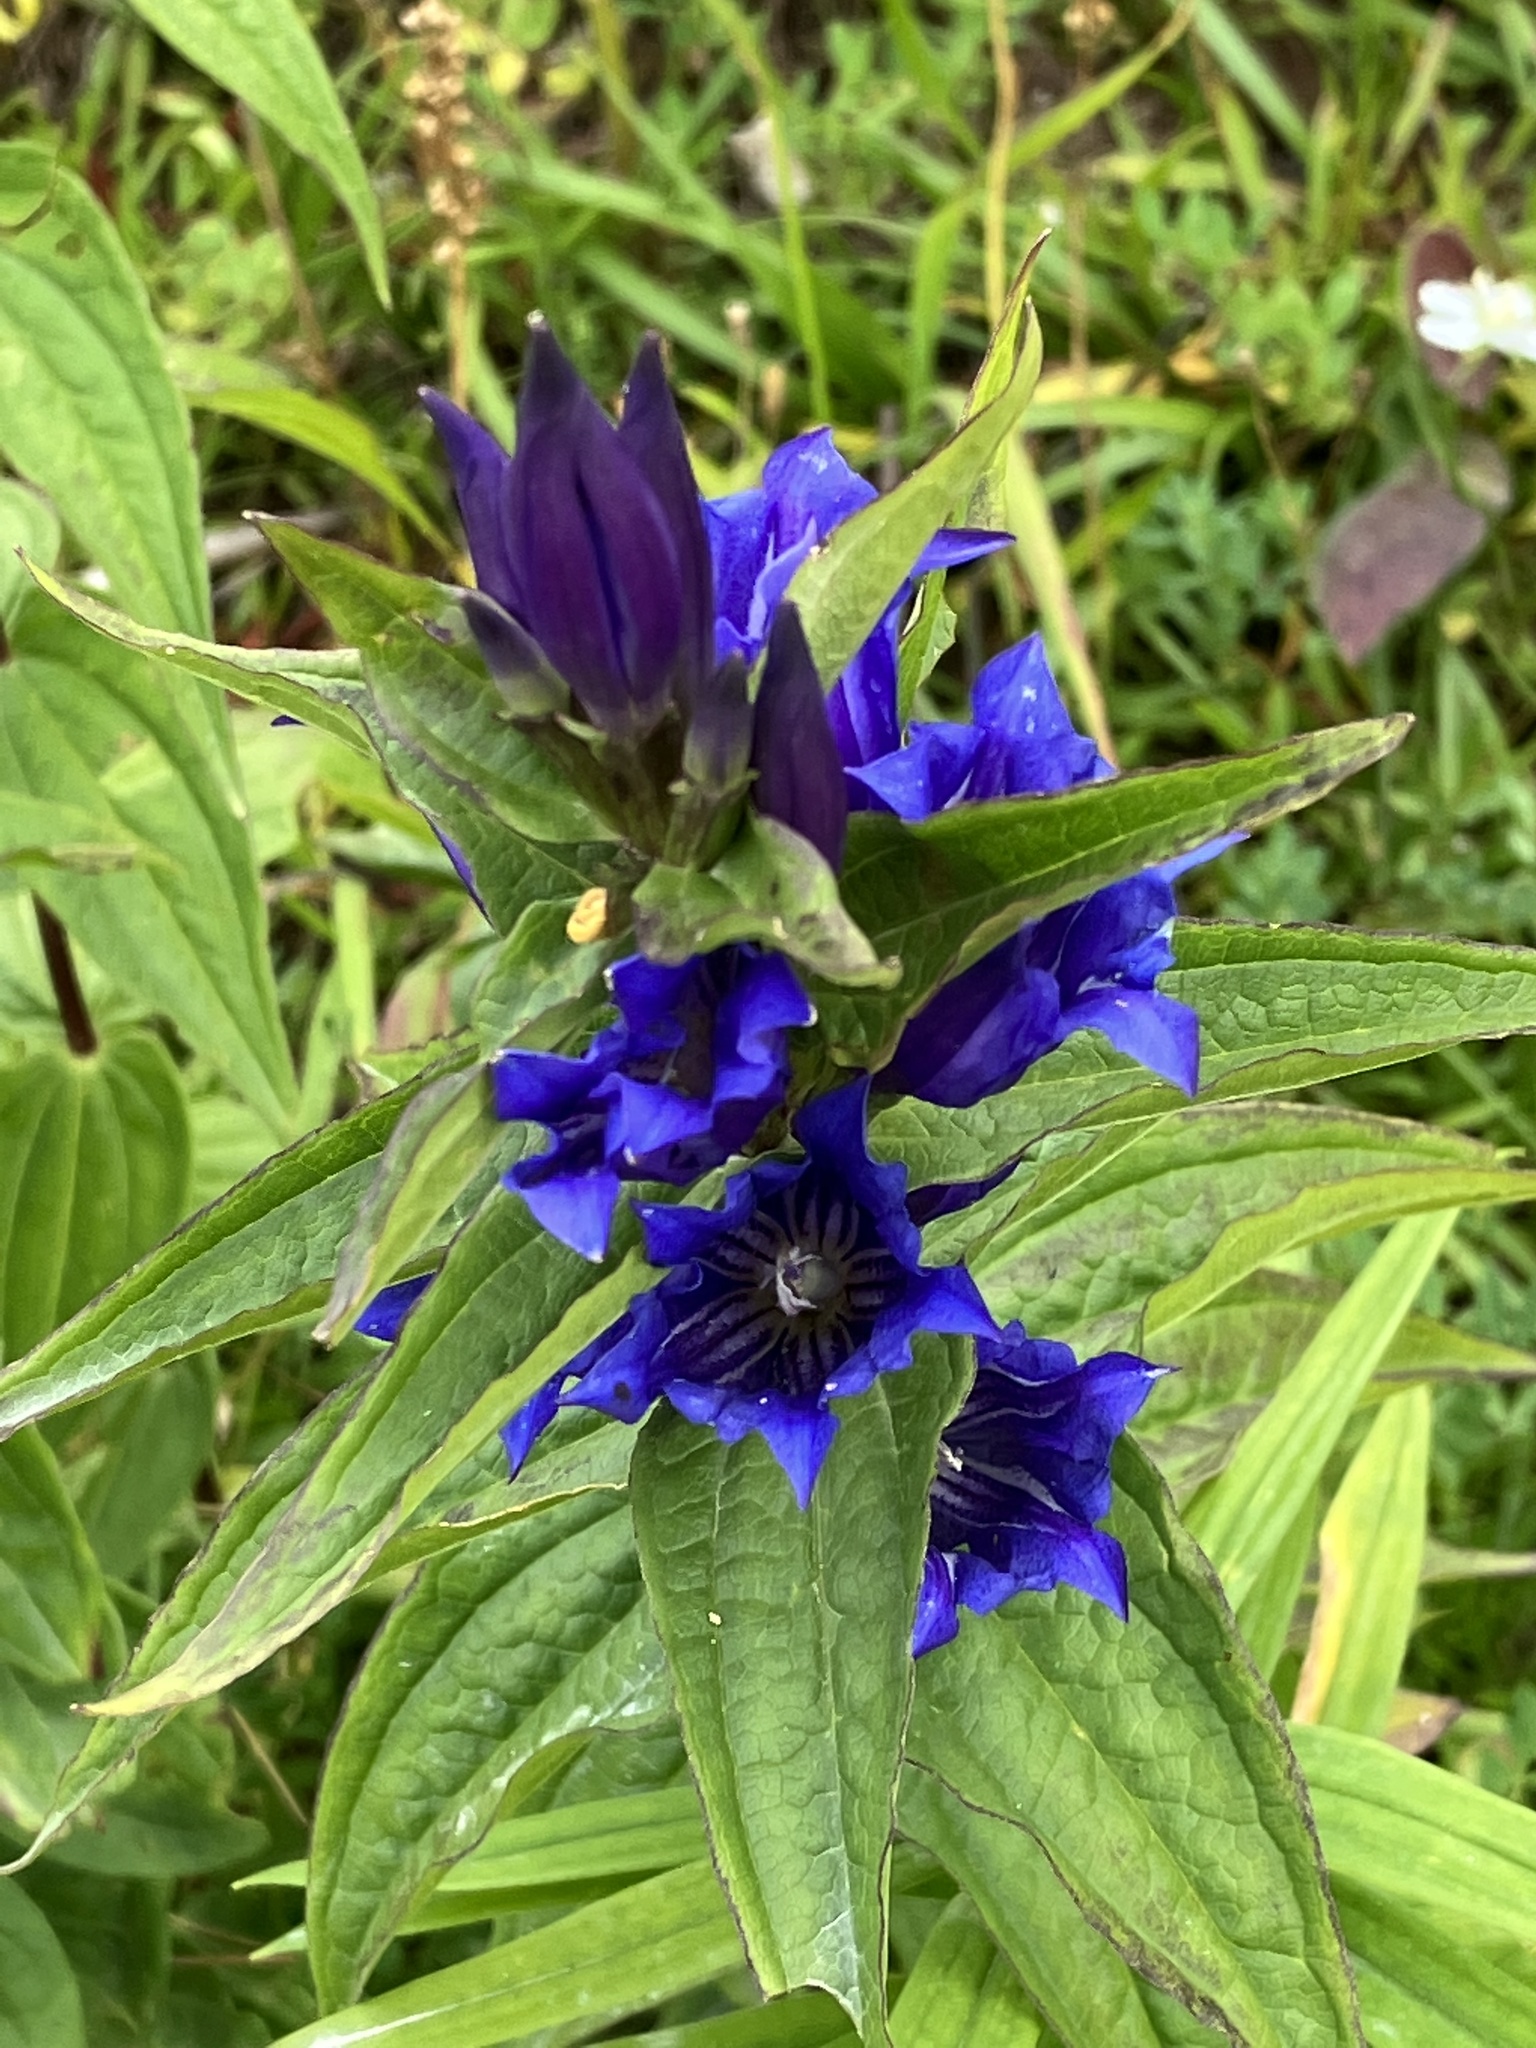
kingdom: Plantae
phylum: Tracheophyta
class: Magnoliopsida
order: Gentianales
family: Gentianaceae
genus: Gentiana
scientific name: Gentiana asclepiadea
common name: Willow gentian
